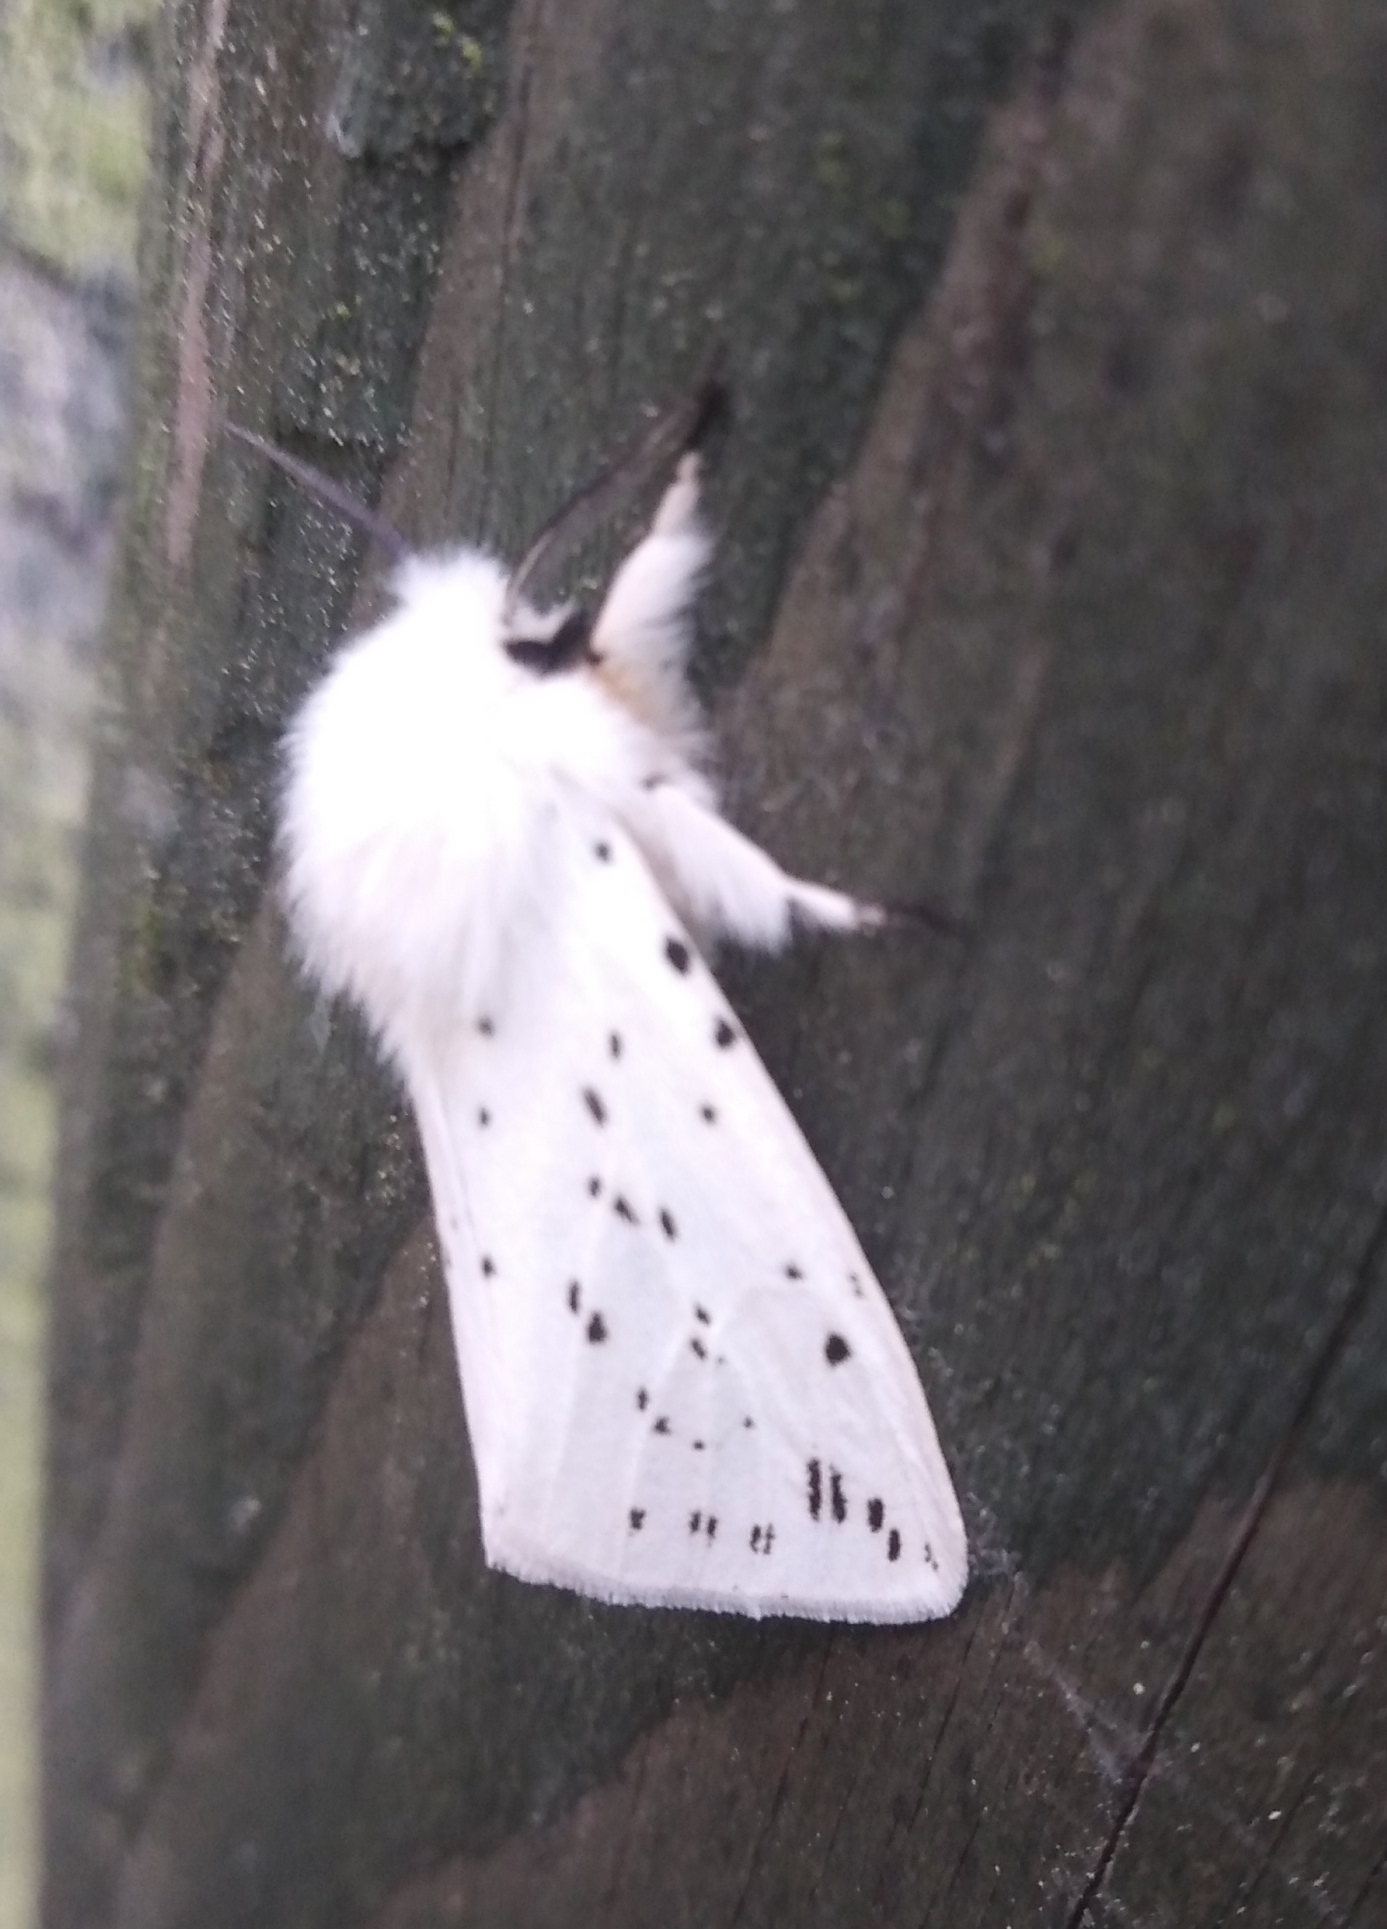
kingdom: Animalia
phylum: Arthropoda
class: Insecta
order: Lepidoptera
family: Erebidae
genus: Spilosoma
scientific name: Spilosoma lubricipeda
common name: White ermine
